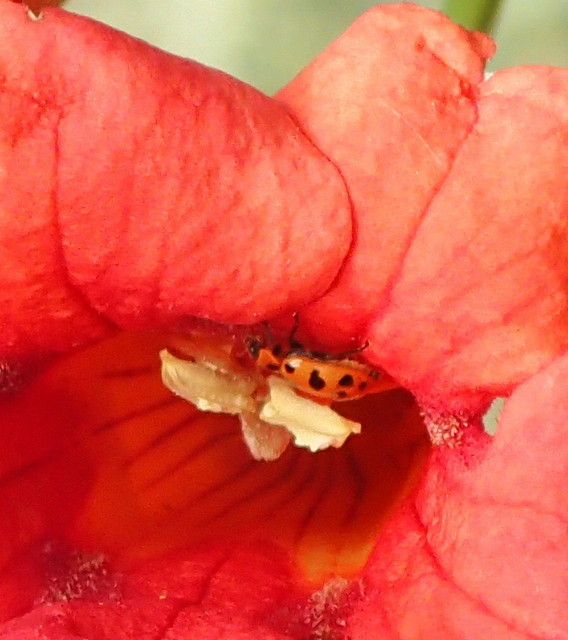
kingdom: Animalia
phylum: Arthropoda
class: Insecta
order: Coleoptera
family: Coccinellidae
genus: Coleomegilla
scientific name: Coleomegilla maculata
